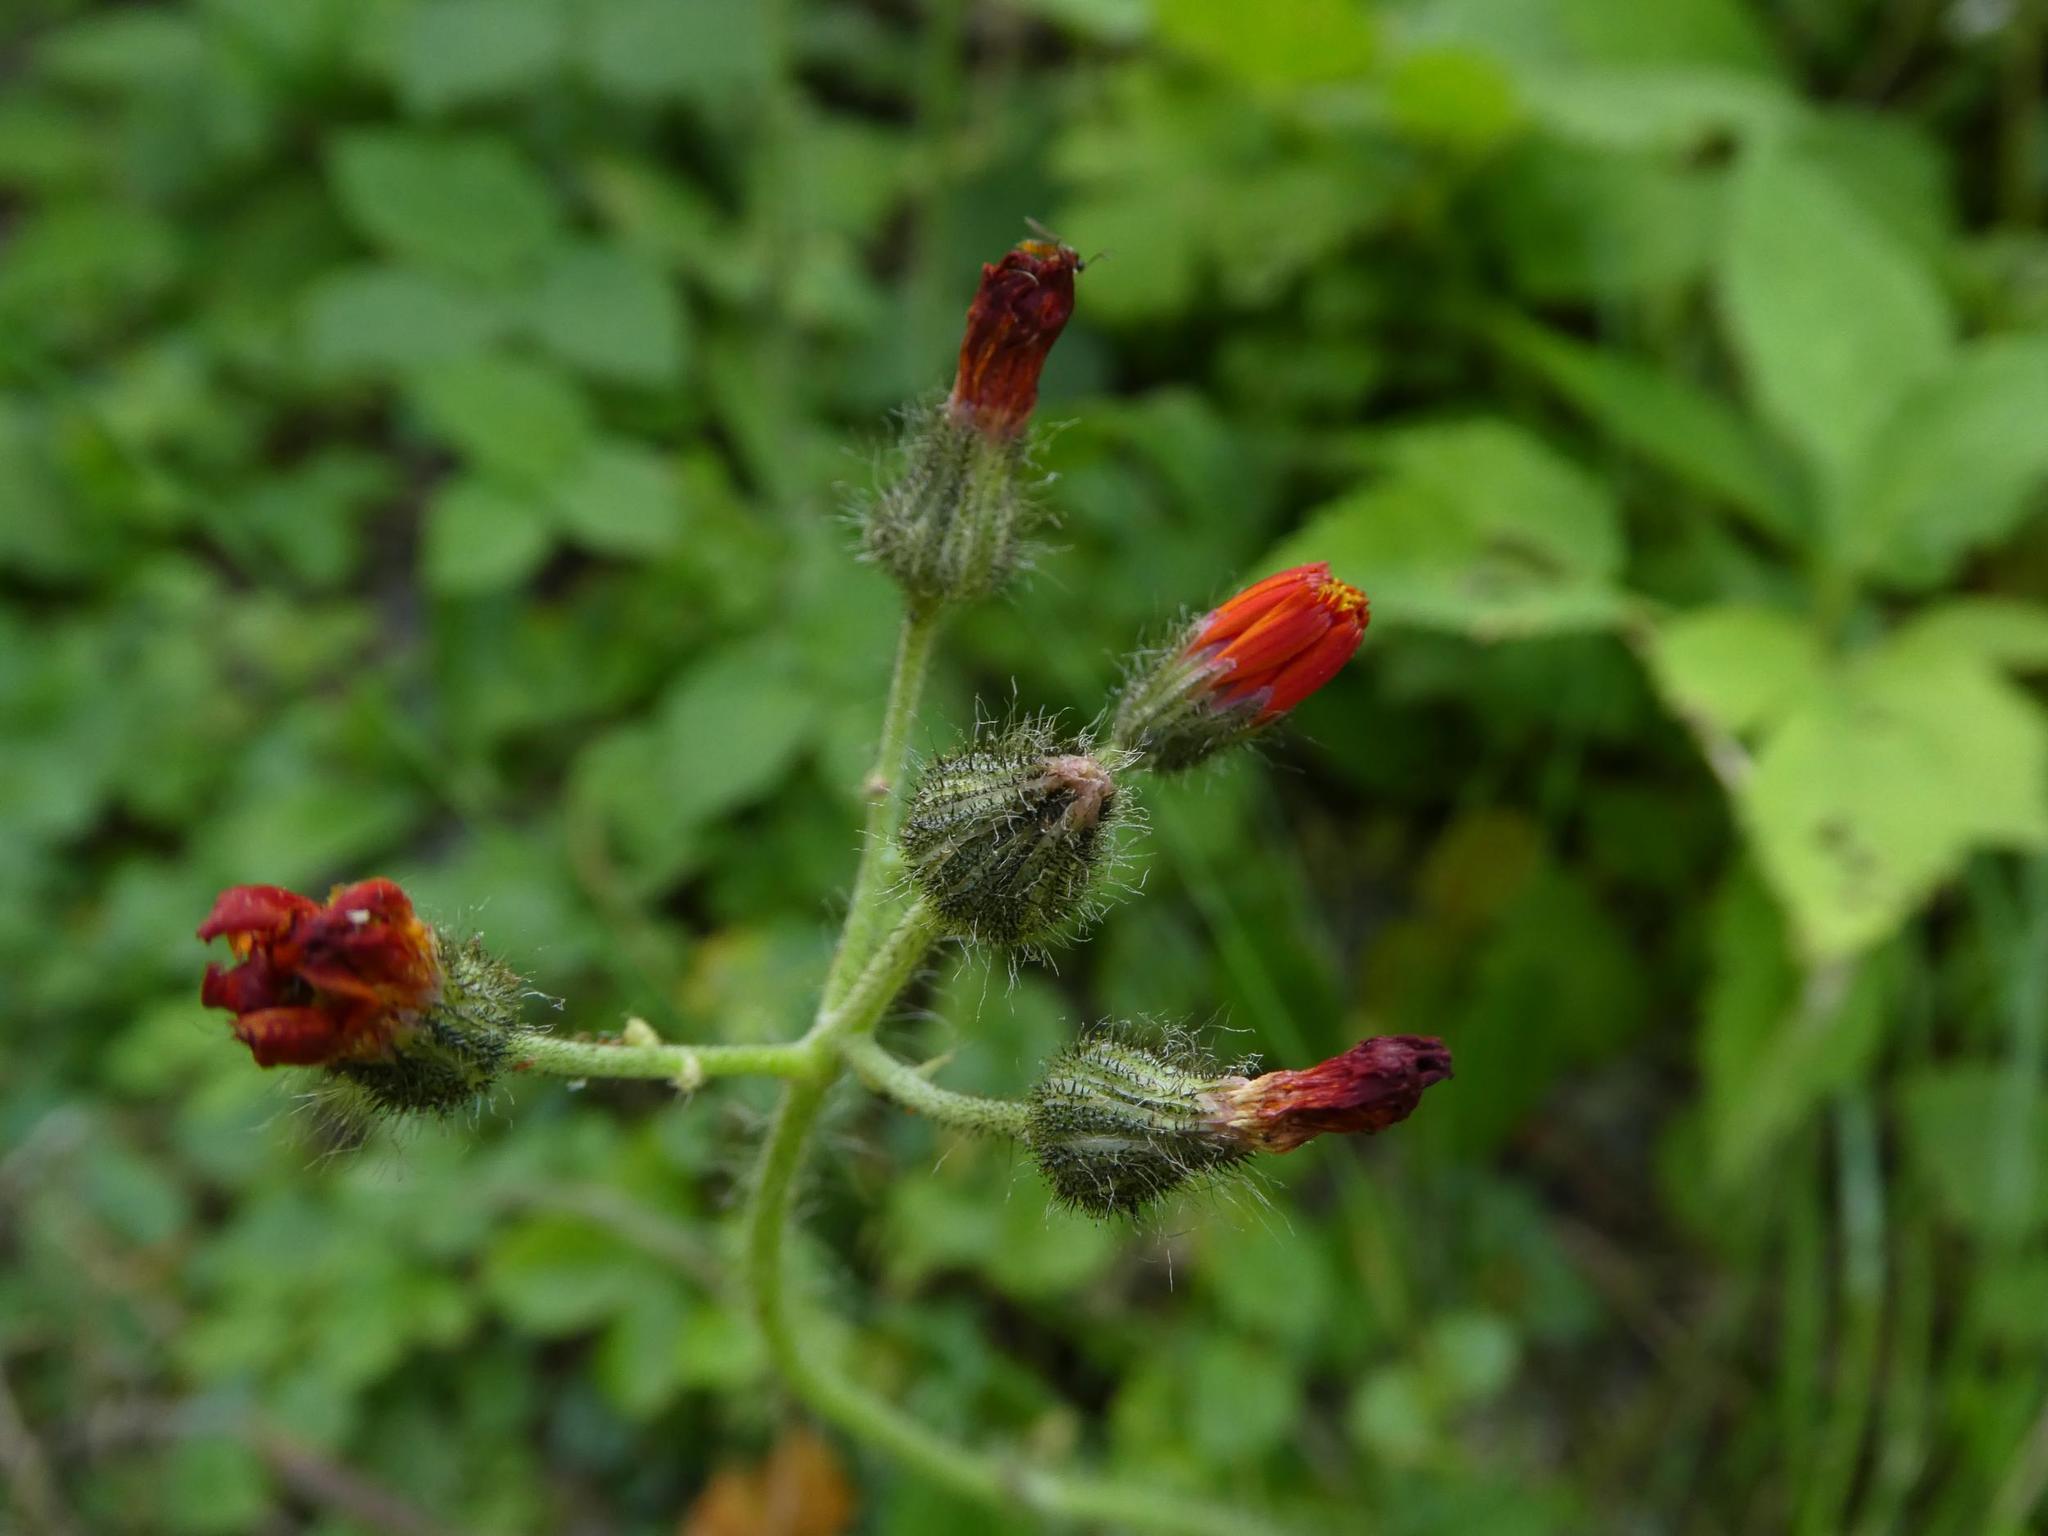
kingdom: Plantae
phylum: Tracheophyta
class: Magnoliopsida
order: Asterales
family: Asteraceae
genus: Pilosella
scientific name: Pilosella aurantiaca
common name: Fox-and-cubs
